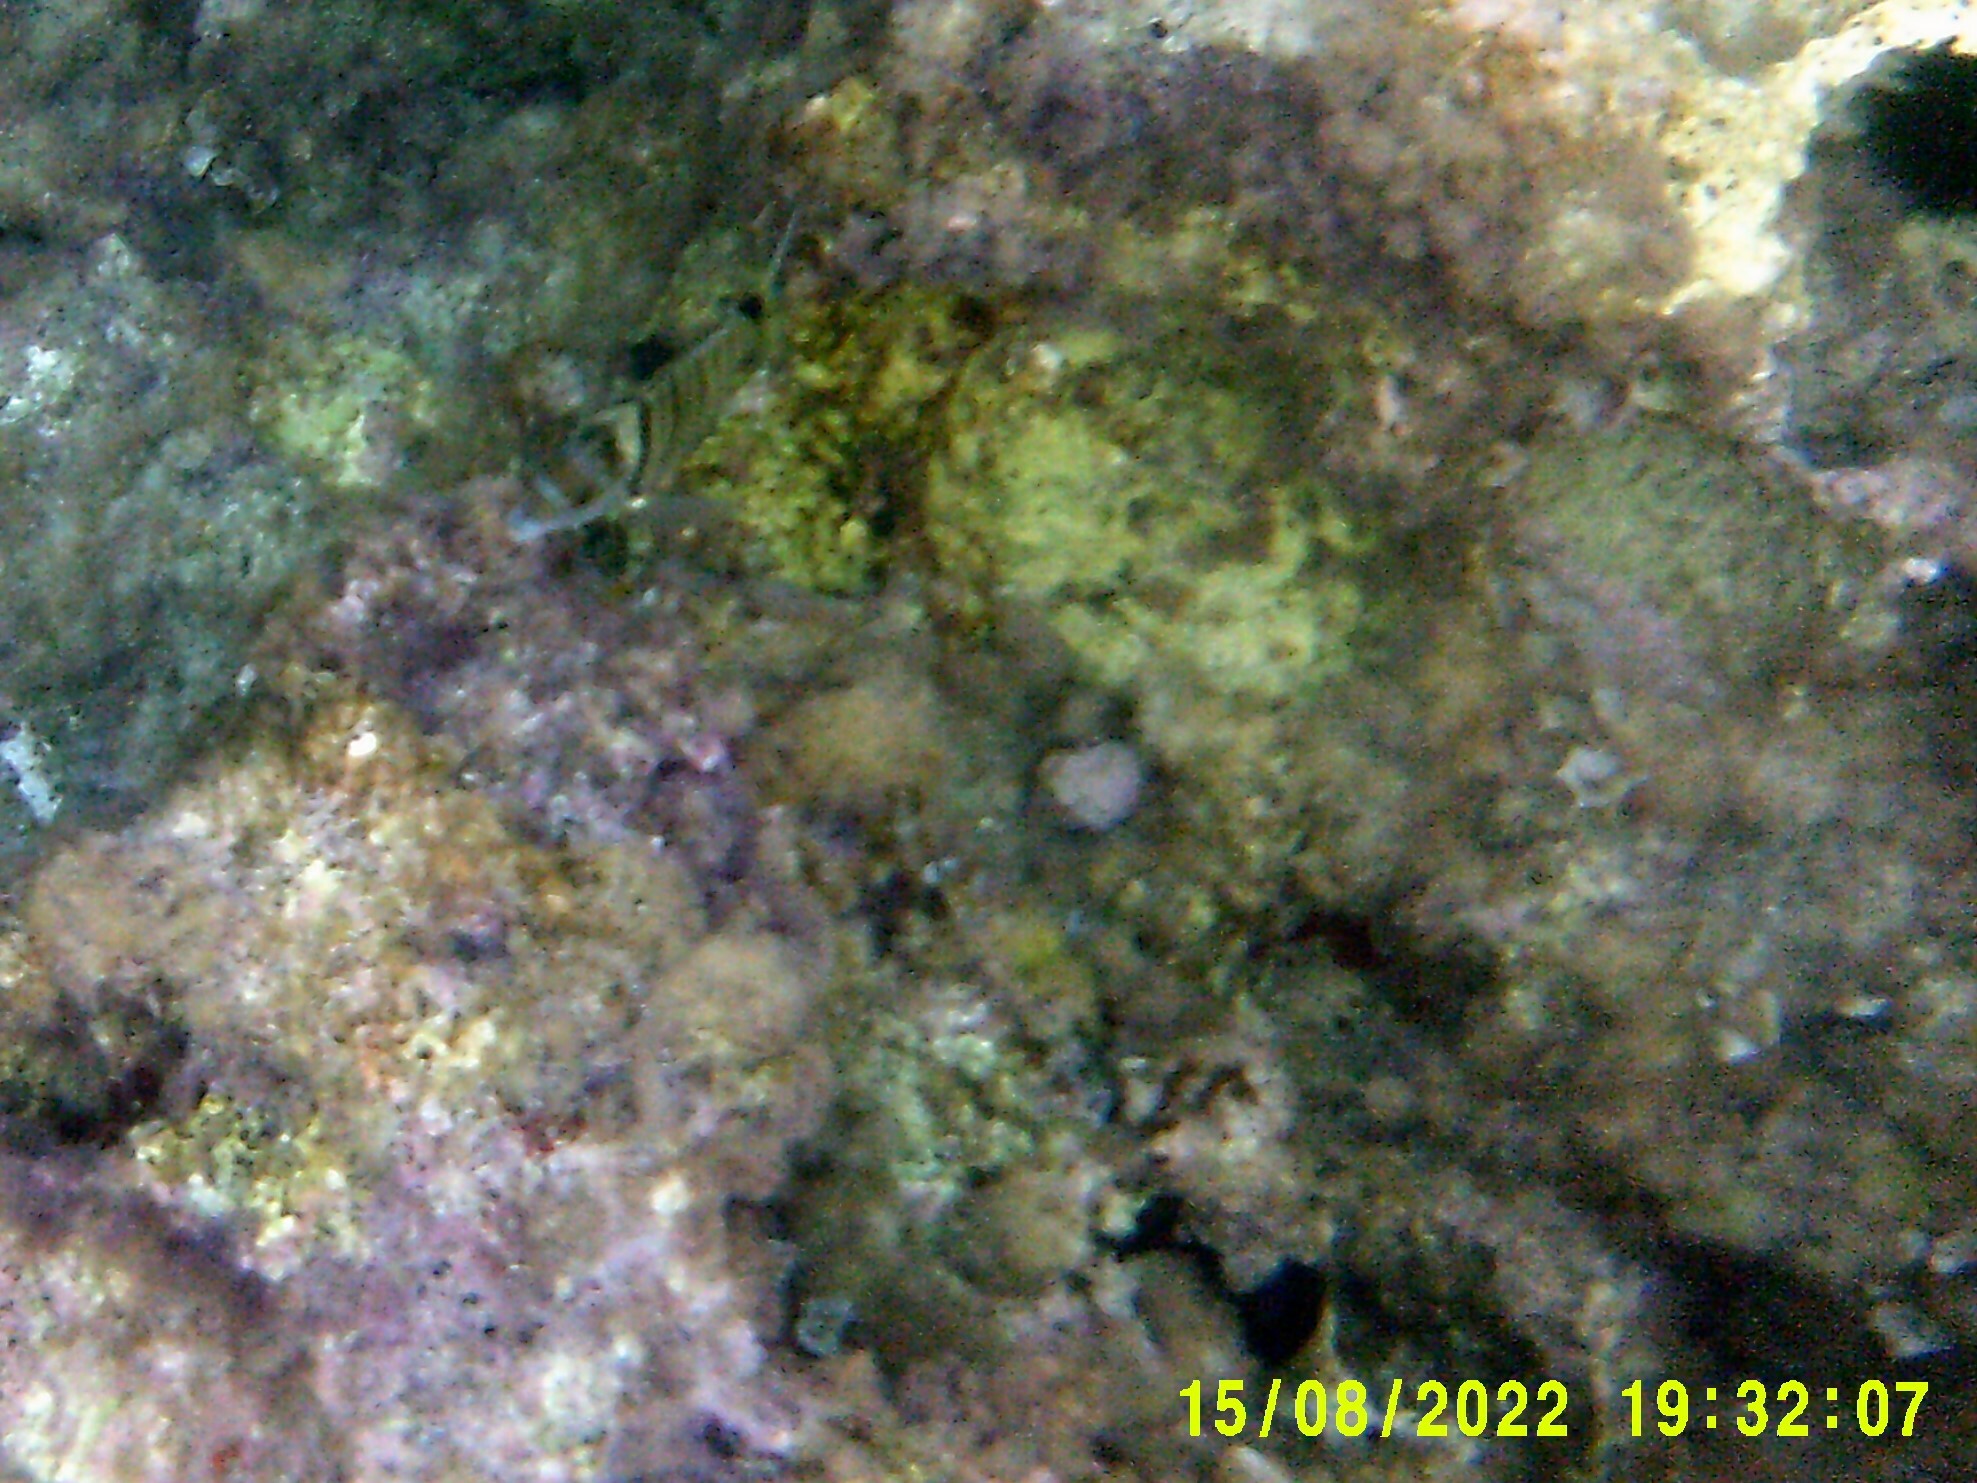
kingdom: Animalia
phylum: Chordata
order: Perciformes
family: Sparidae
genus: Diplodus
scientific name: Diplodus puntazzo
